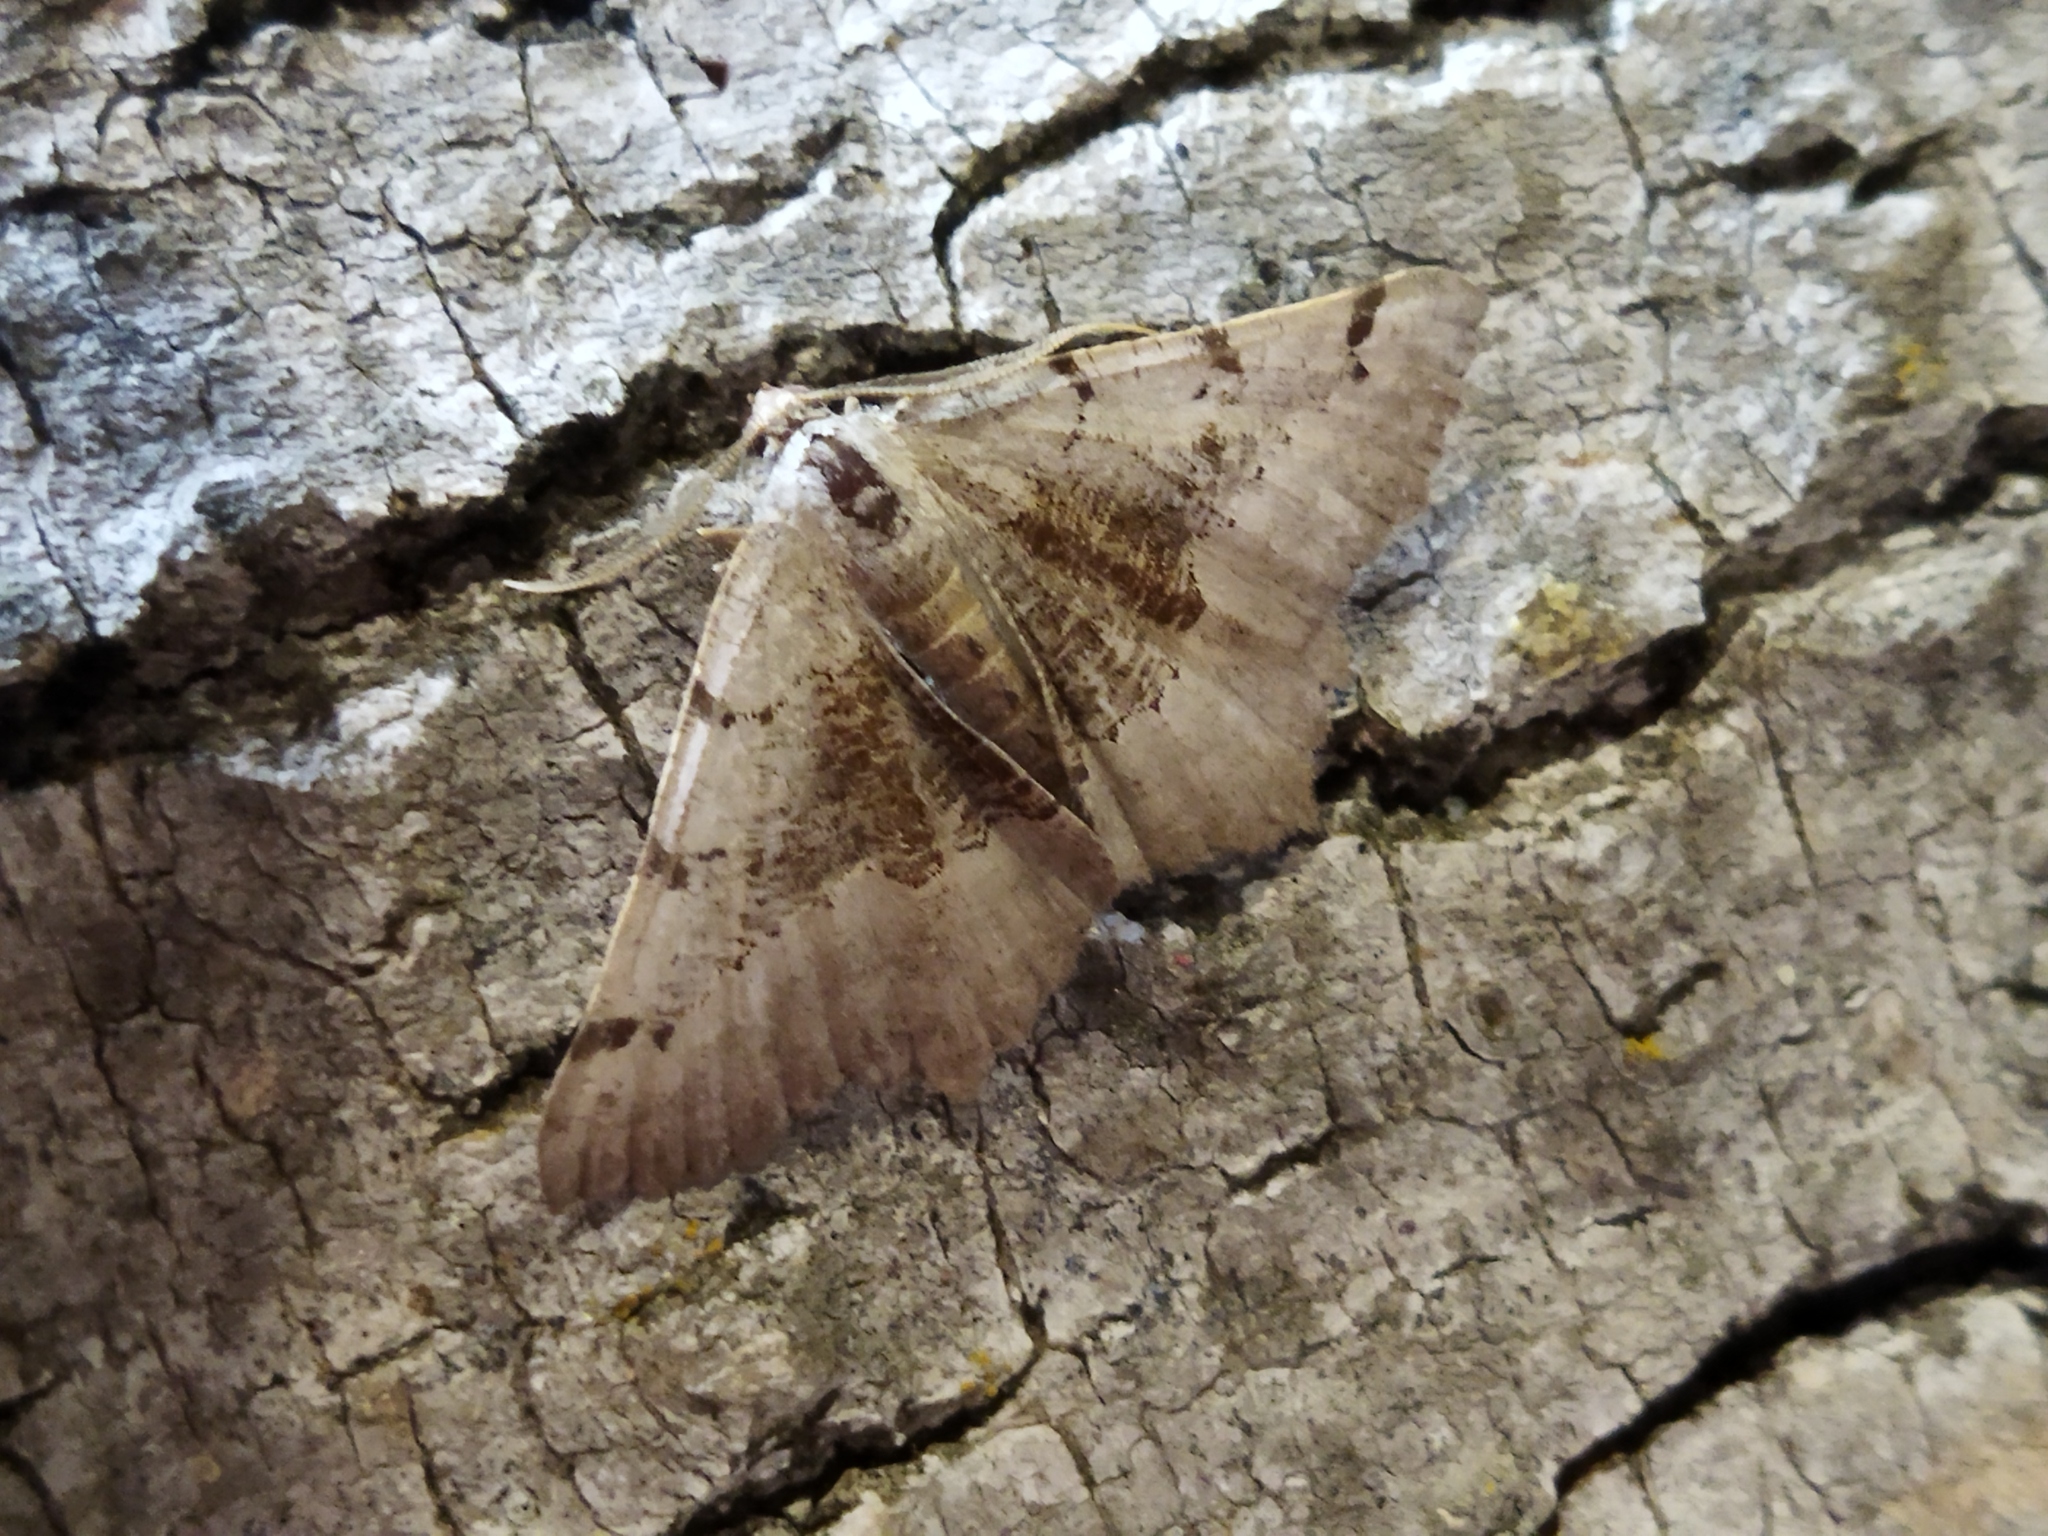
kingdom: Animalia
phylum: Arthropoda
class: Insecta
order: Lepidoptera
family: Geometridae
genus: Neognopharmia
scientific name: Neognopharmia stevenaria
